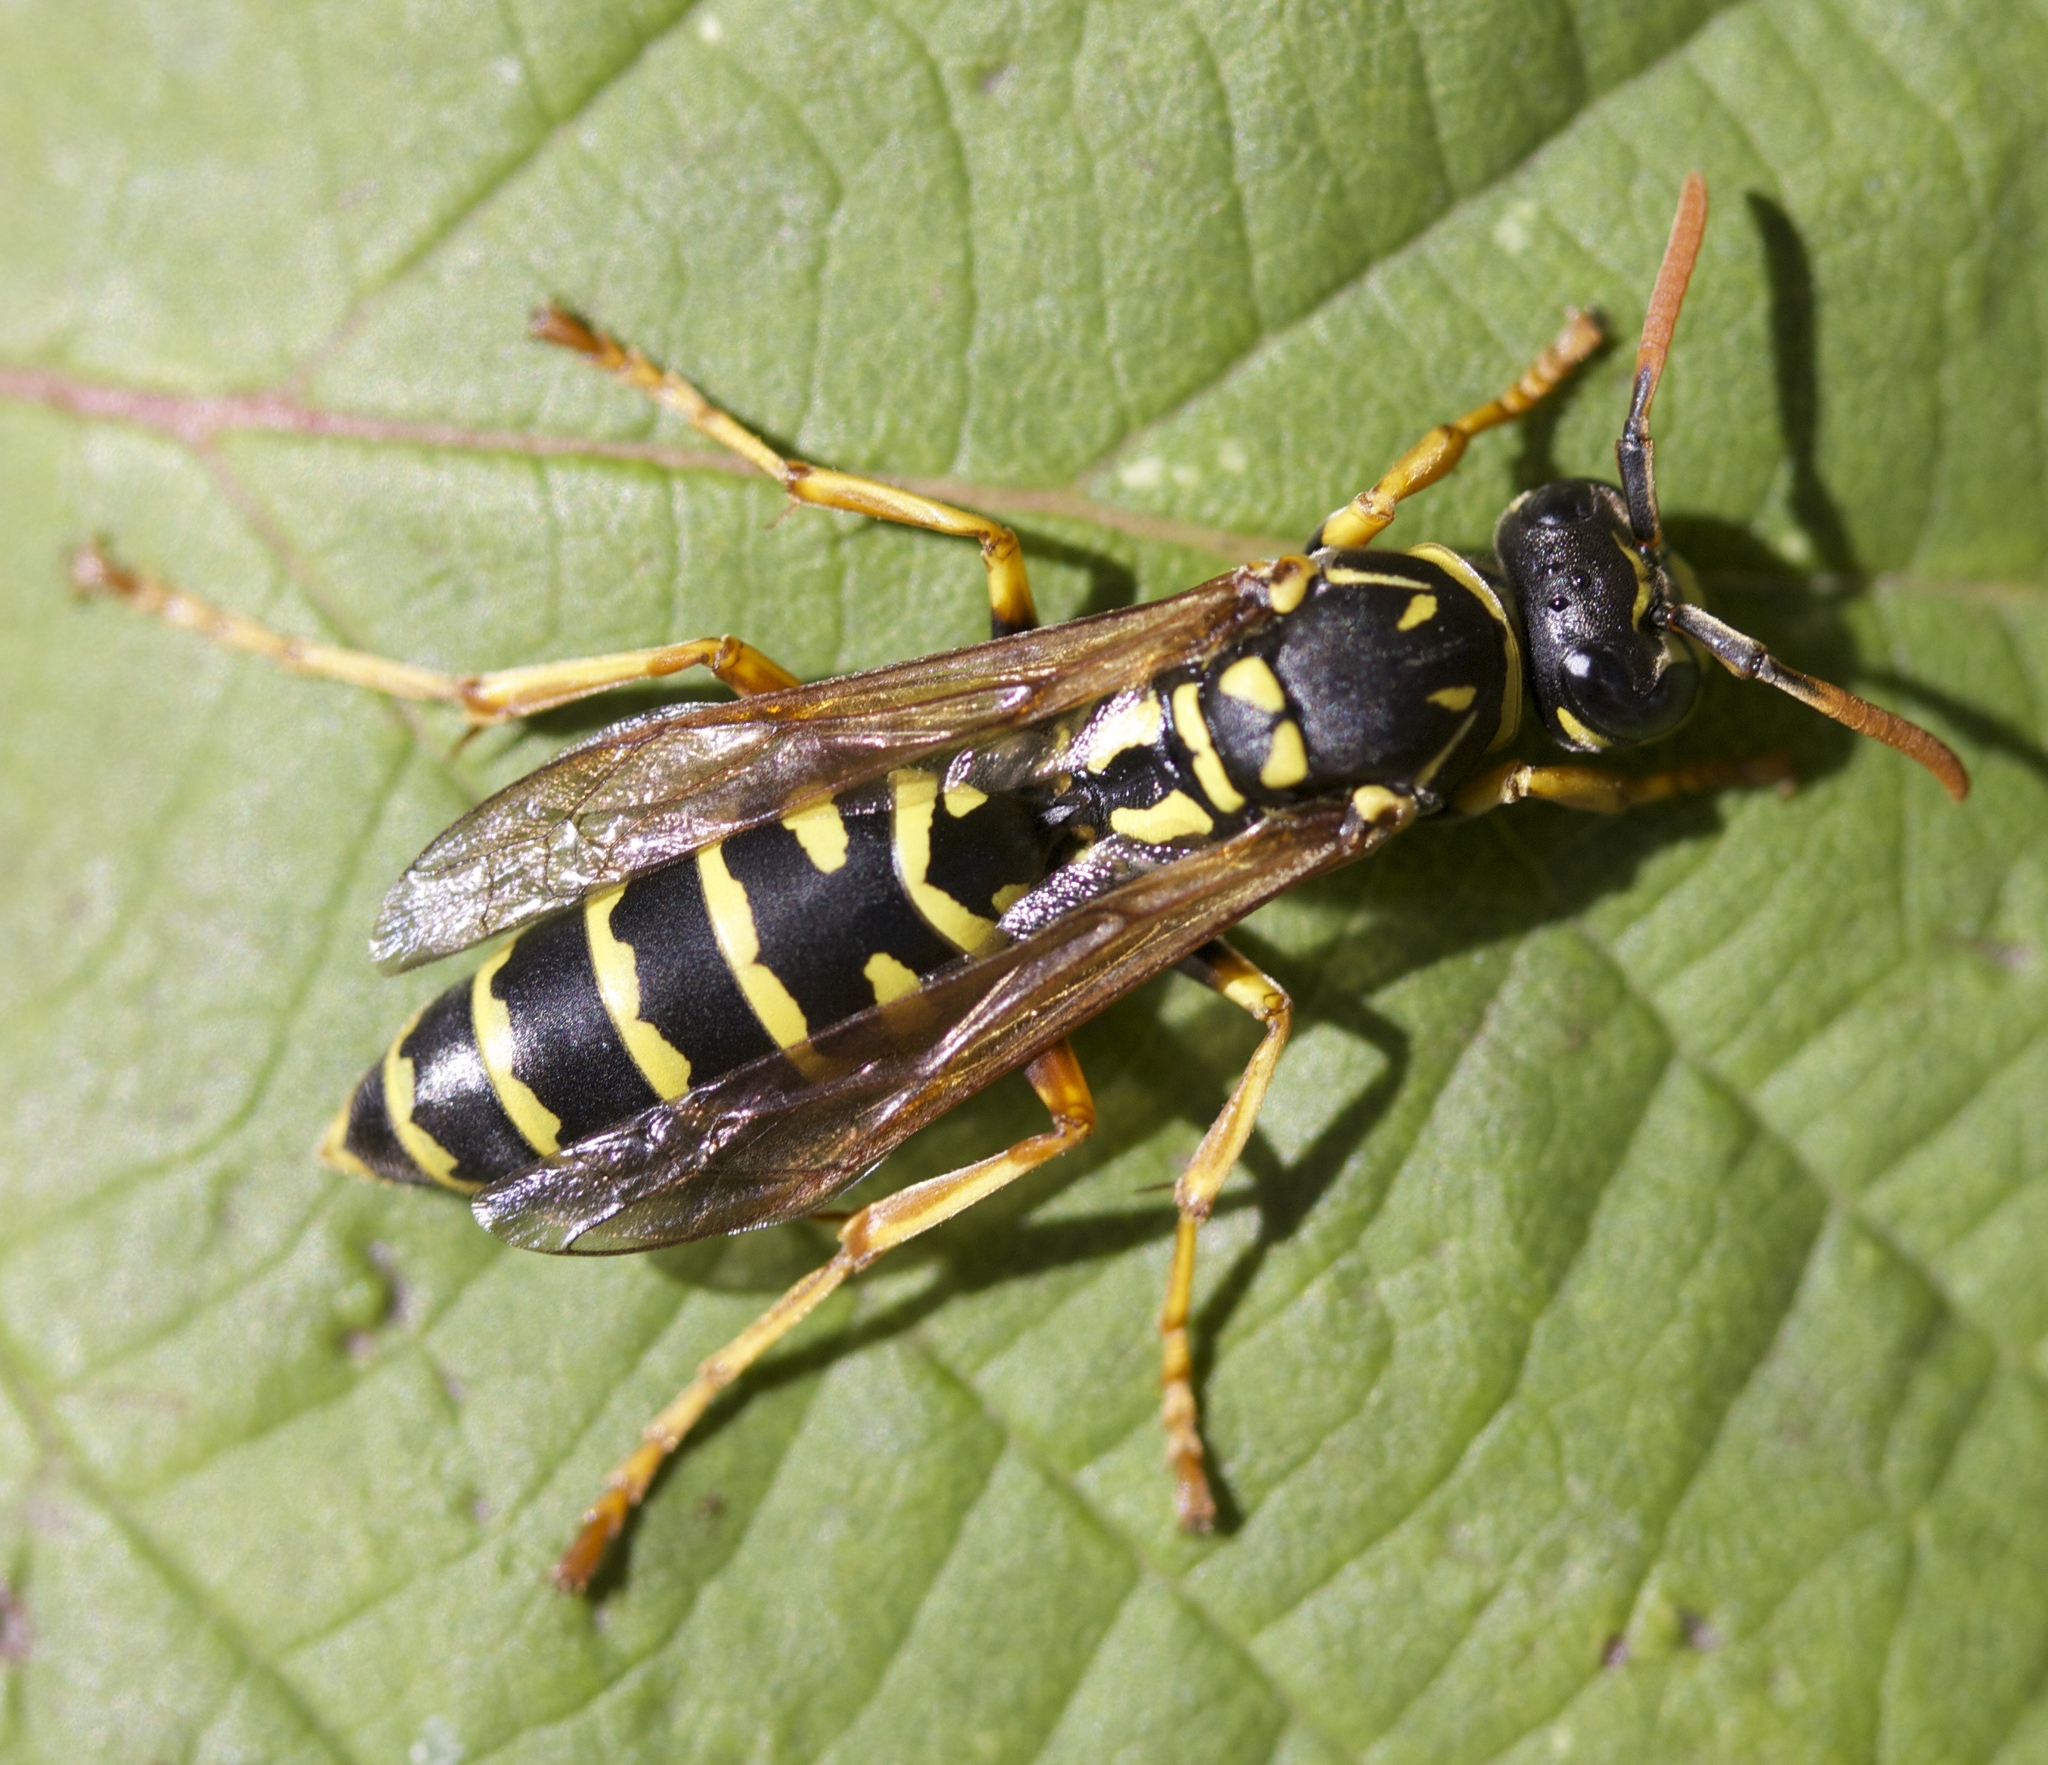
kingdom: Animalia
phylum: Arthropoda
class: Insecta
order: Hymenoptera
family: Eumenidae
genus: Polistes
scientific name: Polistes dominula
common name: Paper wasp
